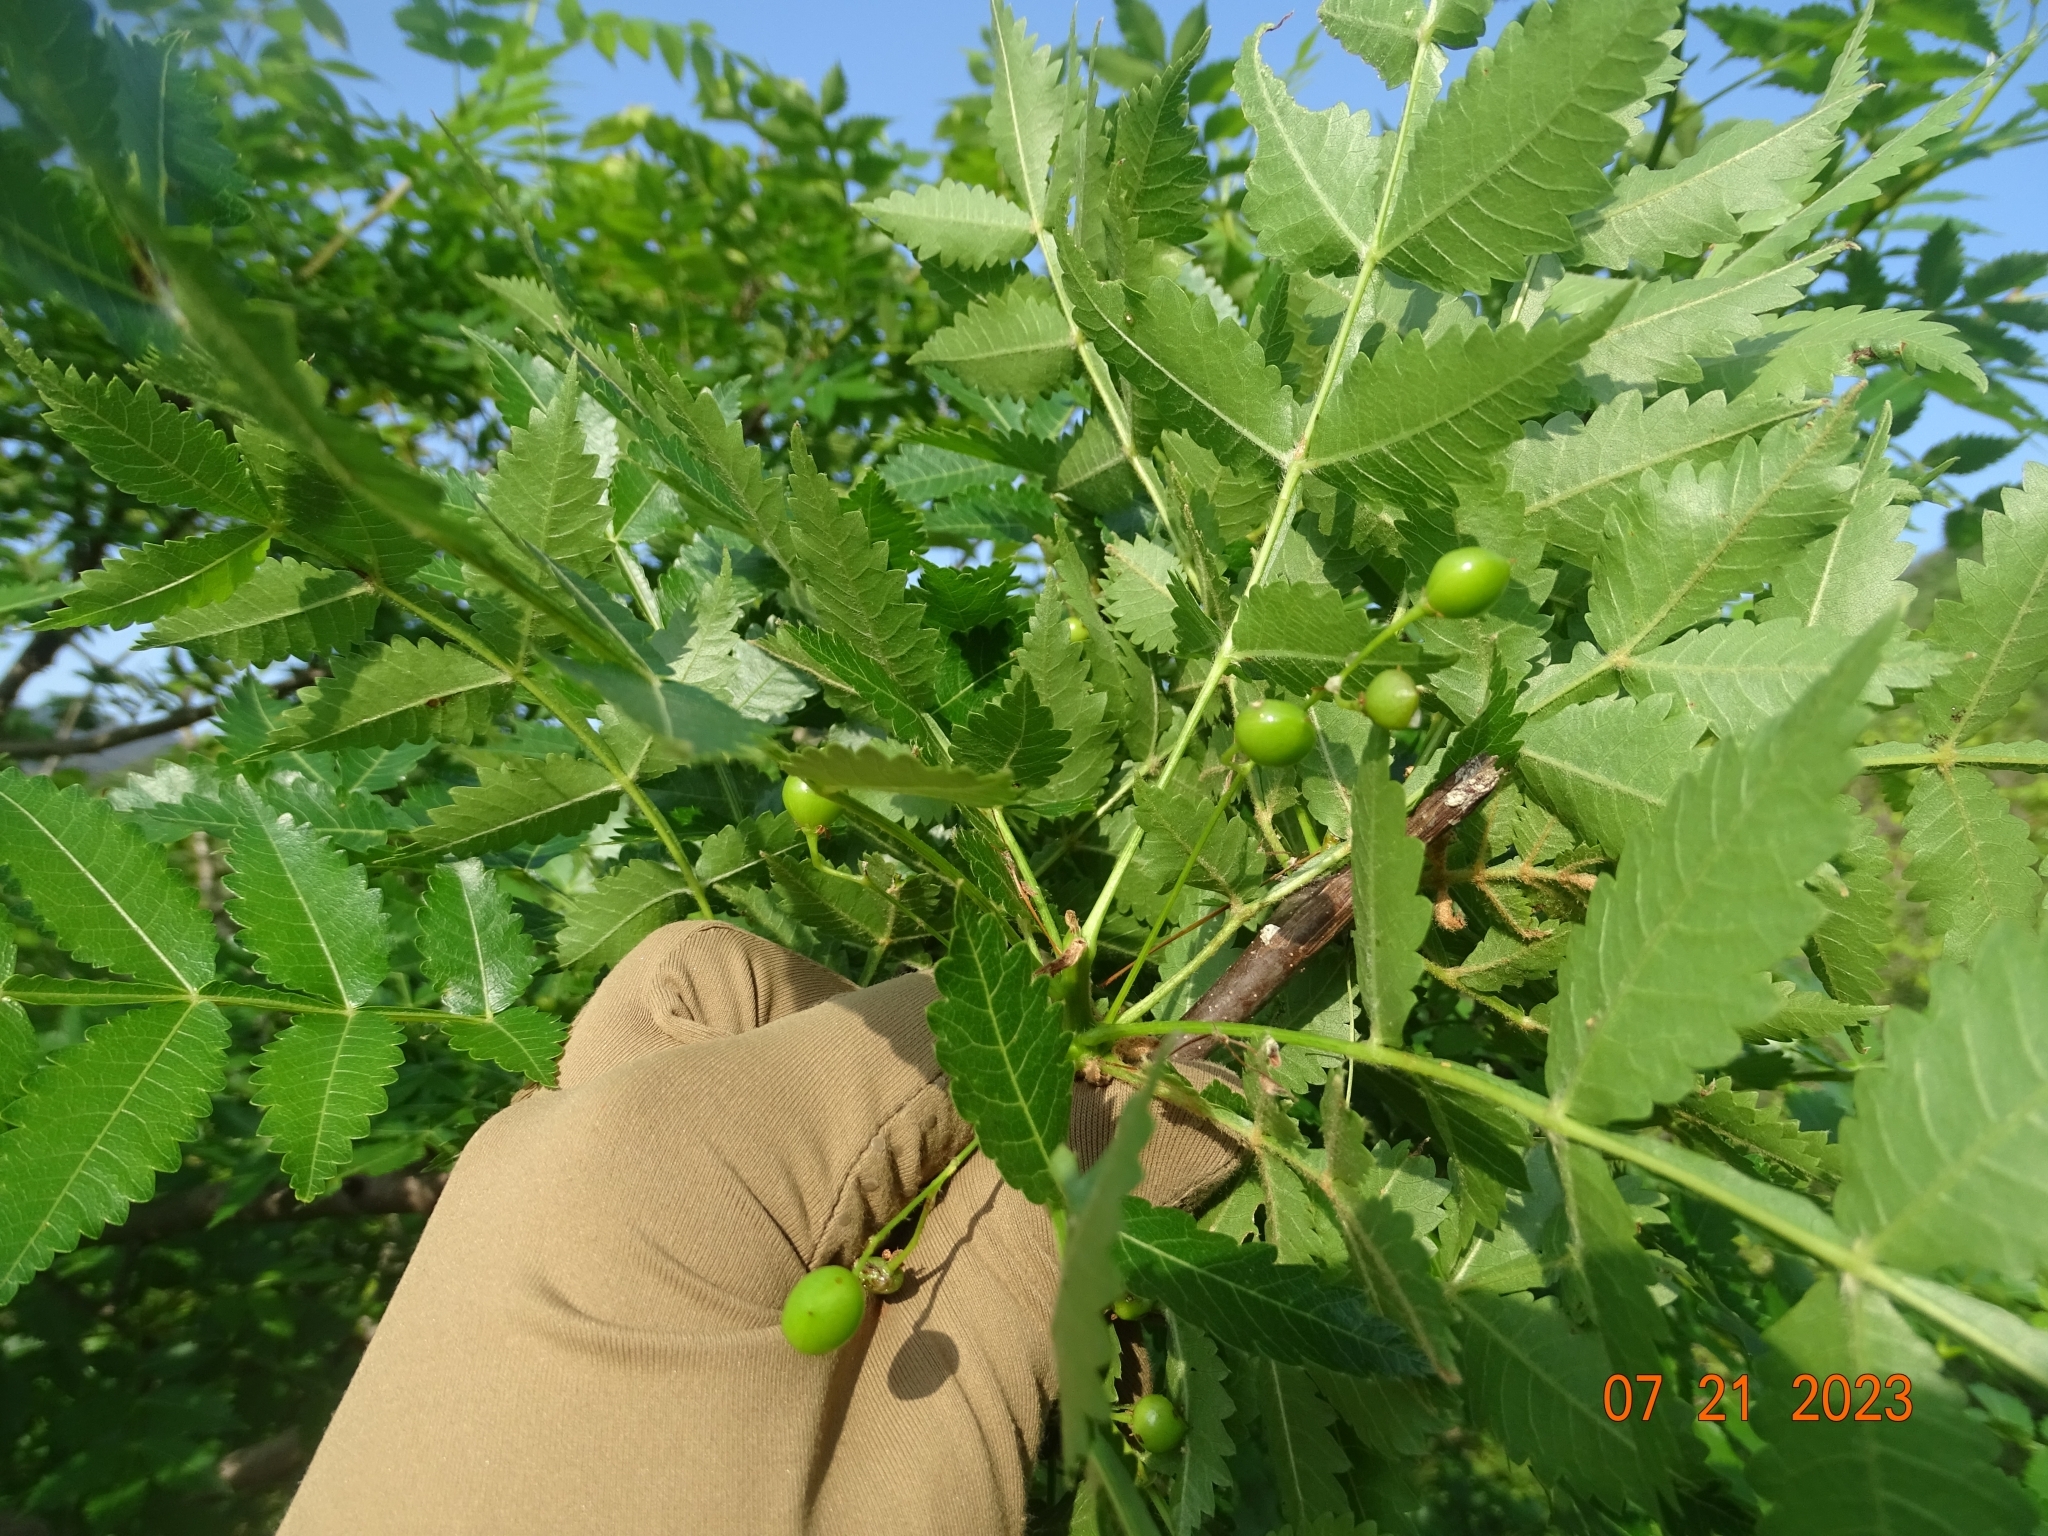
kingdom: Plantae
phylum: Tracheophyta
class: Magnoliopsida
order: Sapindales
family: Burseraceae
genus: Bursera
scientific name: Bursera penicillata
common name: Indian-lavender
